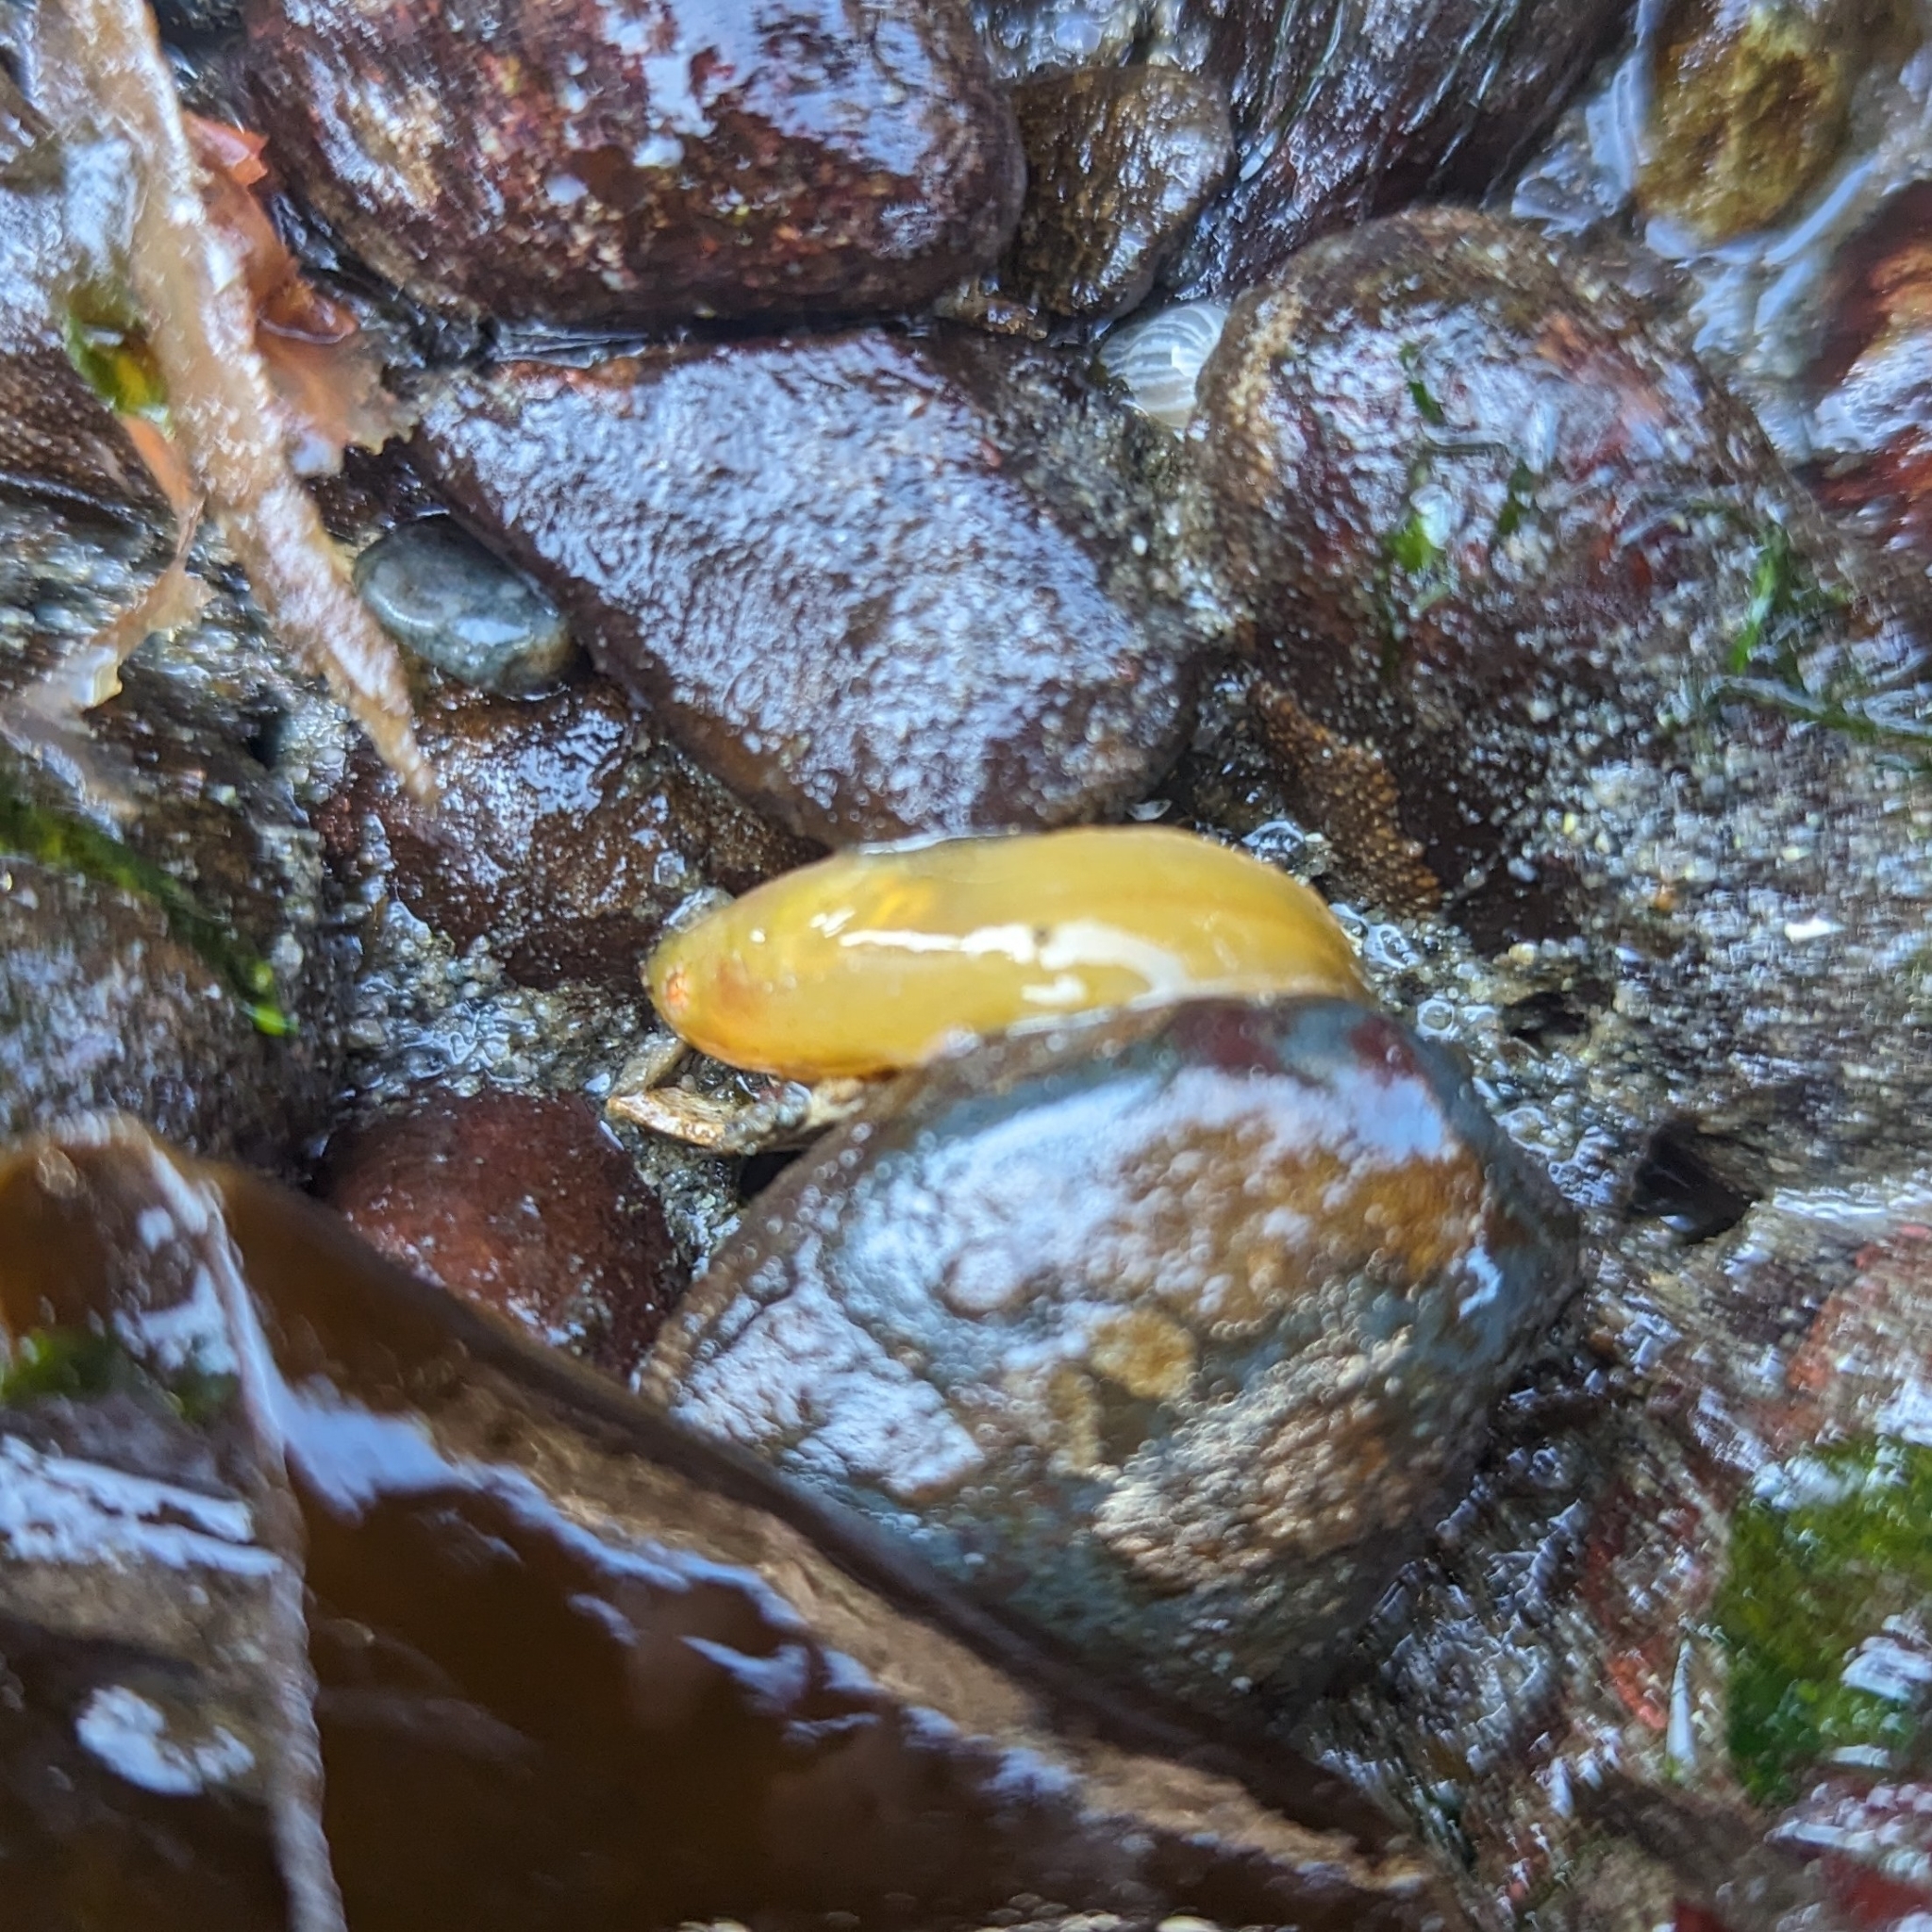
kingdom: Animalia
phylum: Chordata
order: Scorpaeniformes
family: Liparidae
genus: Liparis
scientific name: Liparis florae
